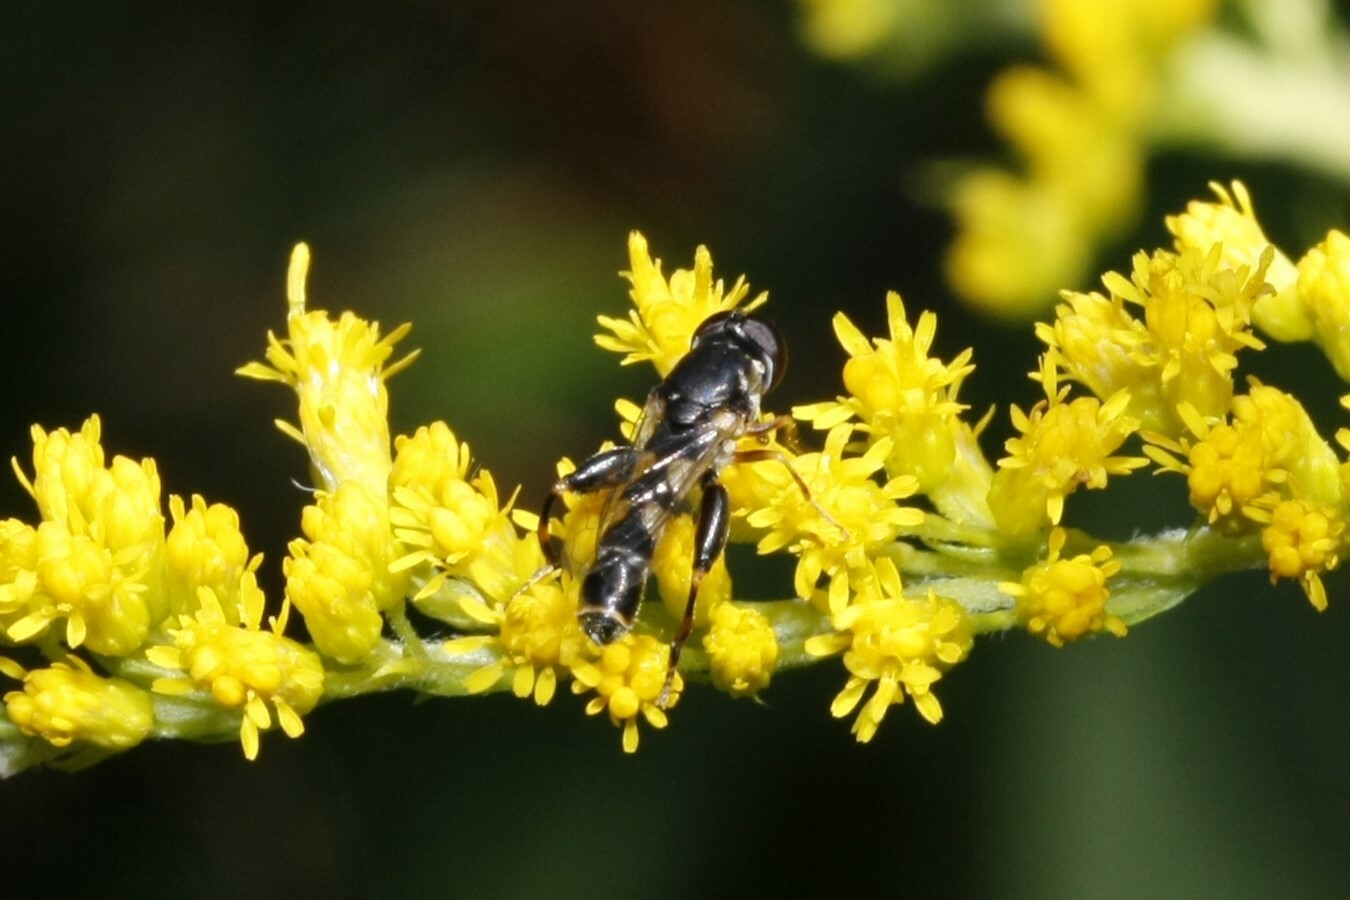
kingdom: Animalia
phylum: Arthropoda
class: Insecta
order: Diptera
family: Syrphidae
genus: Syritta
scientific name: Syritta pipiens
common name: Hover fly
